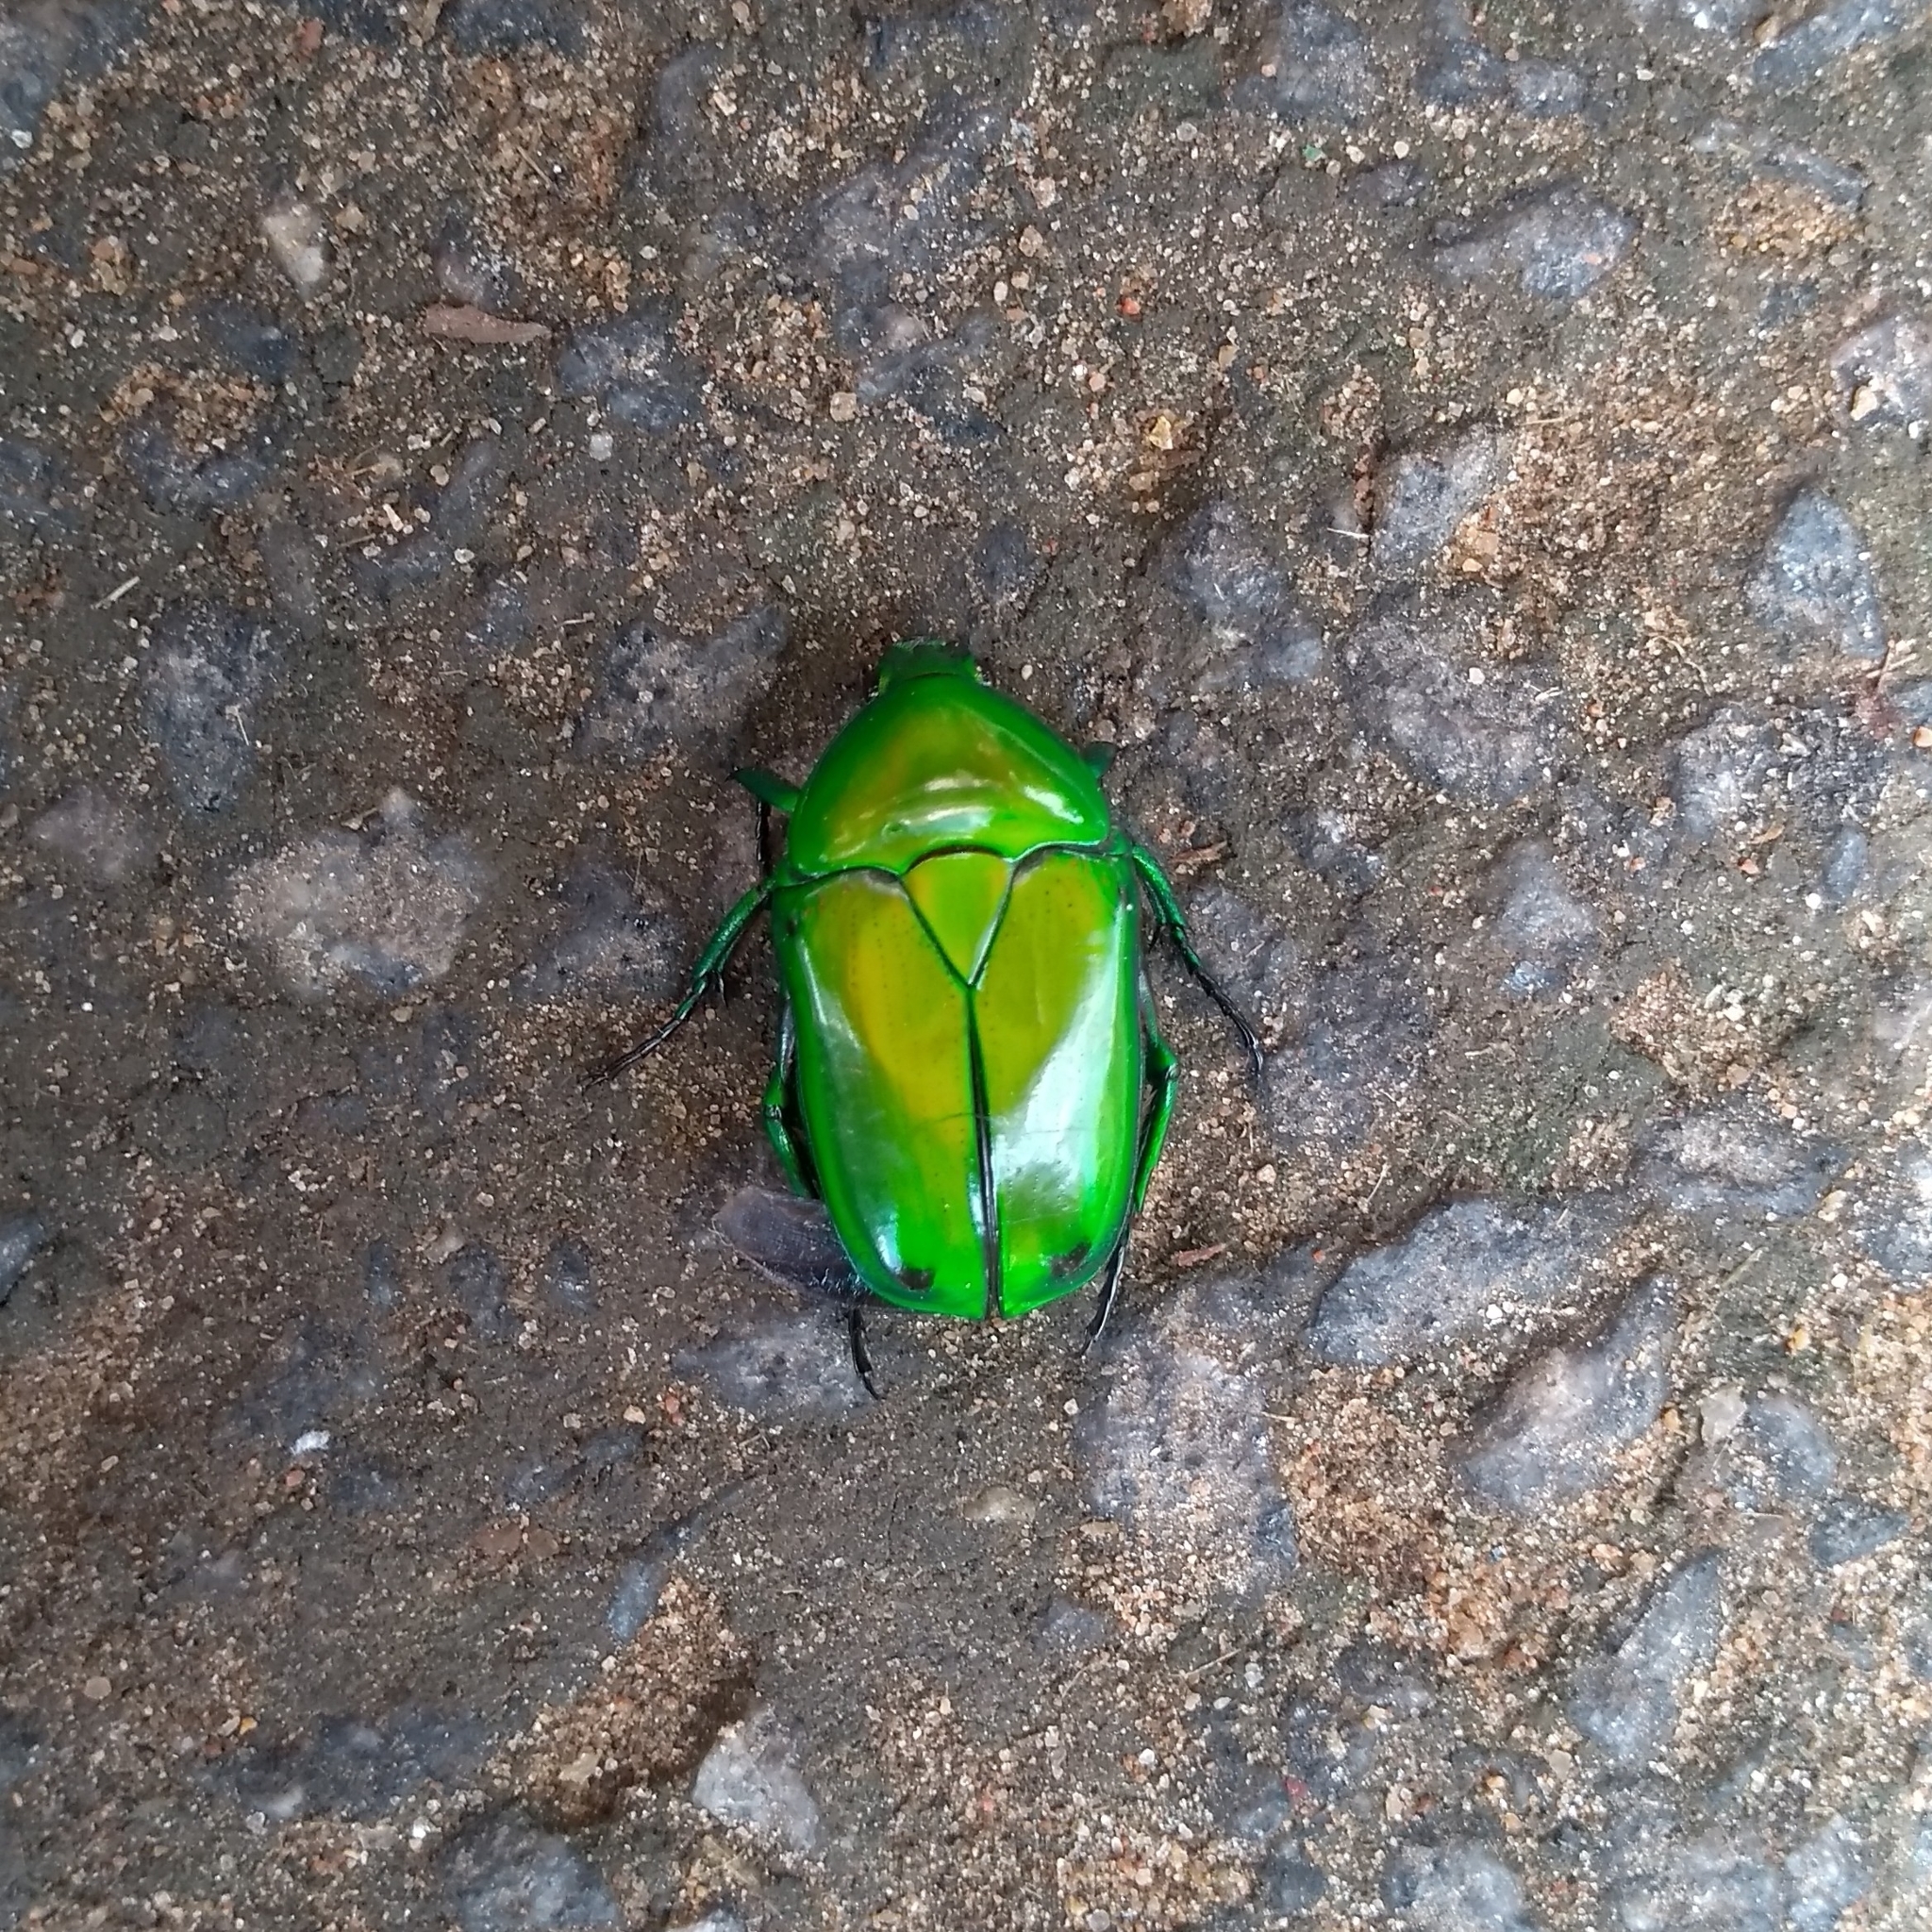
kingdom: Animalia
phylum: Arthropoda
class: Insecta
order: Coleoptera
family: Scarabaeidae
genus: Ptychodesthes
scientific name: Ptychodesthes Heterorrhina elegans
